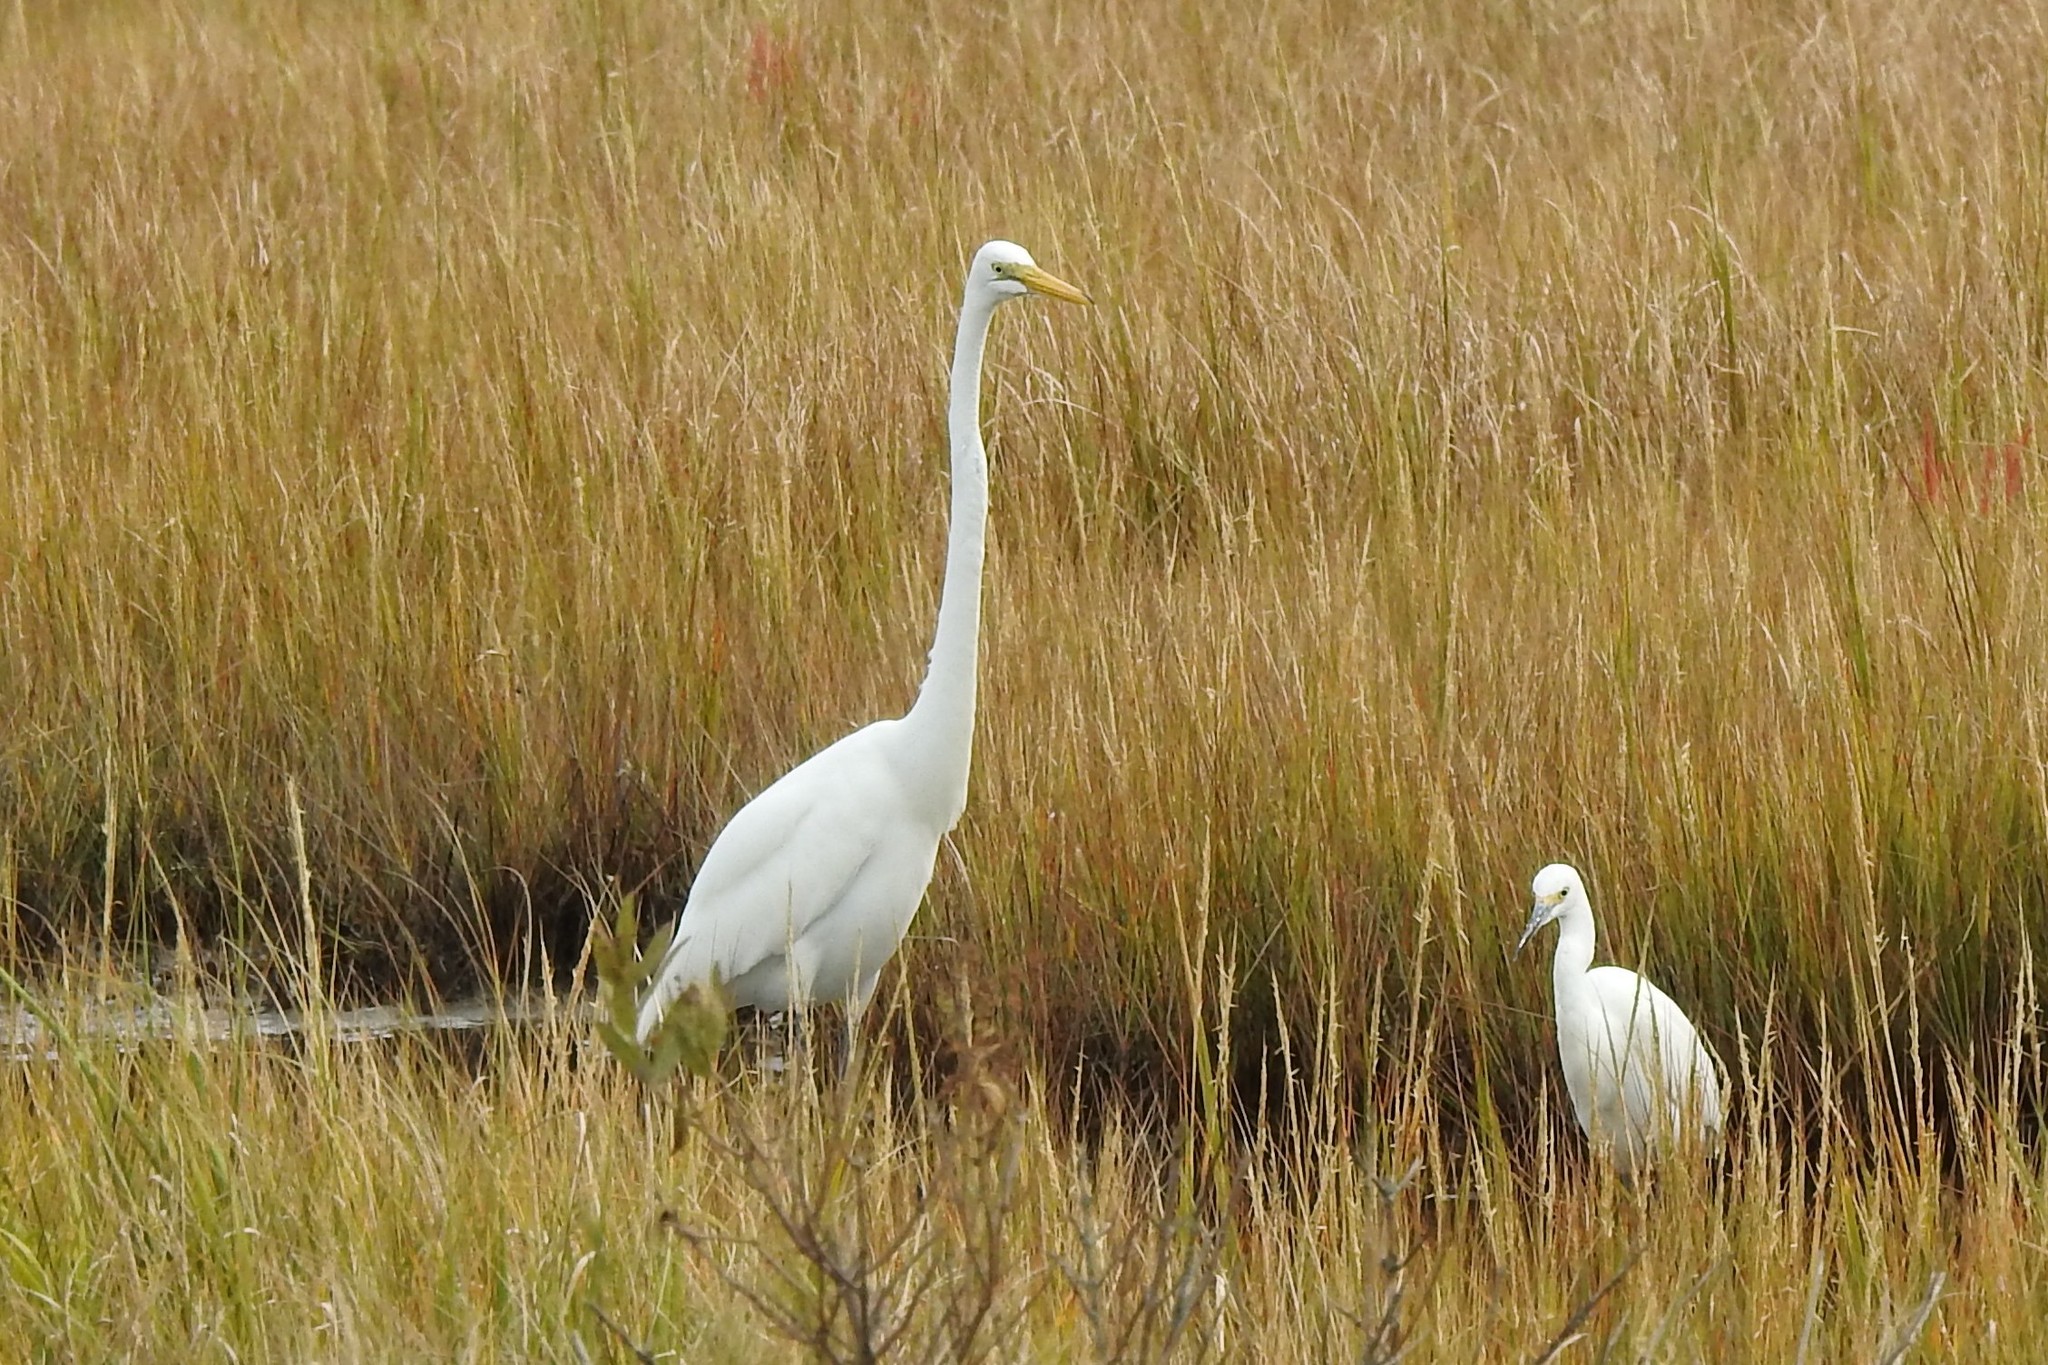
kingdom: Animalia
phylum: Chordata
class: Aves
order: Pelecaniformes
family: Ardeidae
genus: Ardea
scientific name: Ardea alba
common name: Great egret
